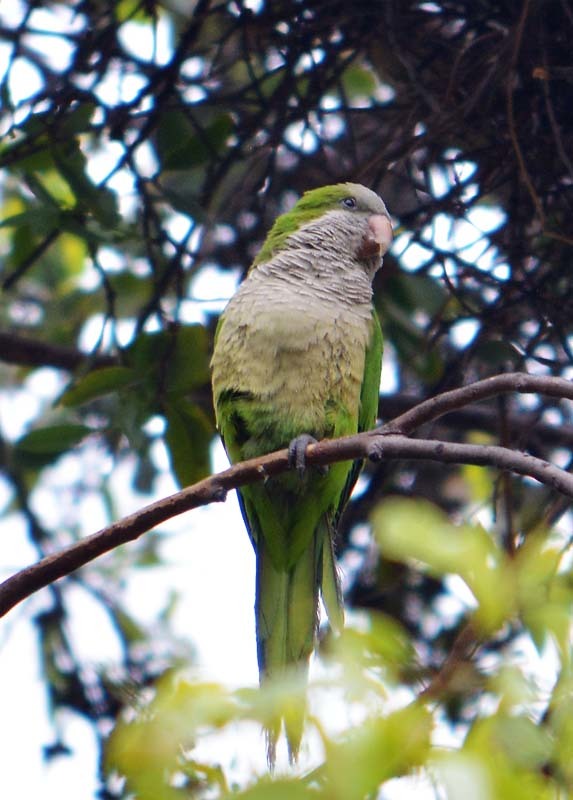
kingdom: Animalia
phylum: Chordata
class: Aves
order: Psittaciformes
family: Psittacidae
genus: Myiopsitta
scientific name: Myiopsitta monachus
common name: Monk parakeet
